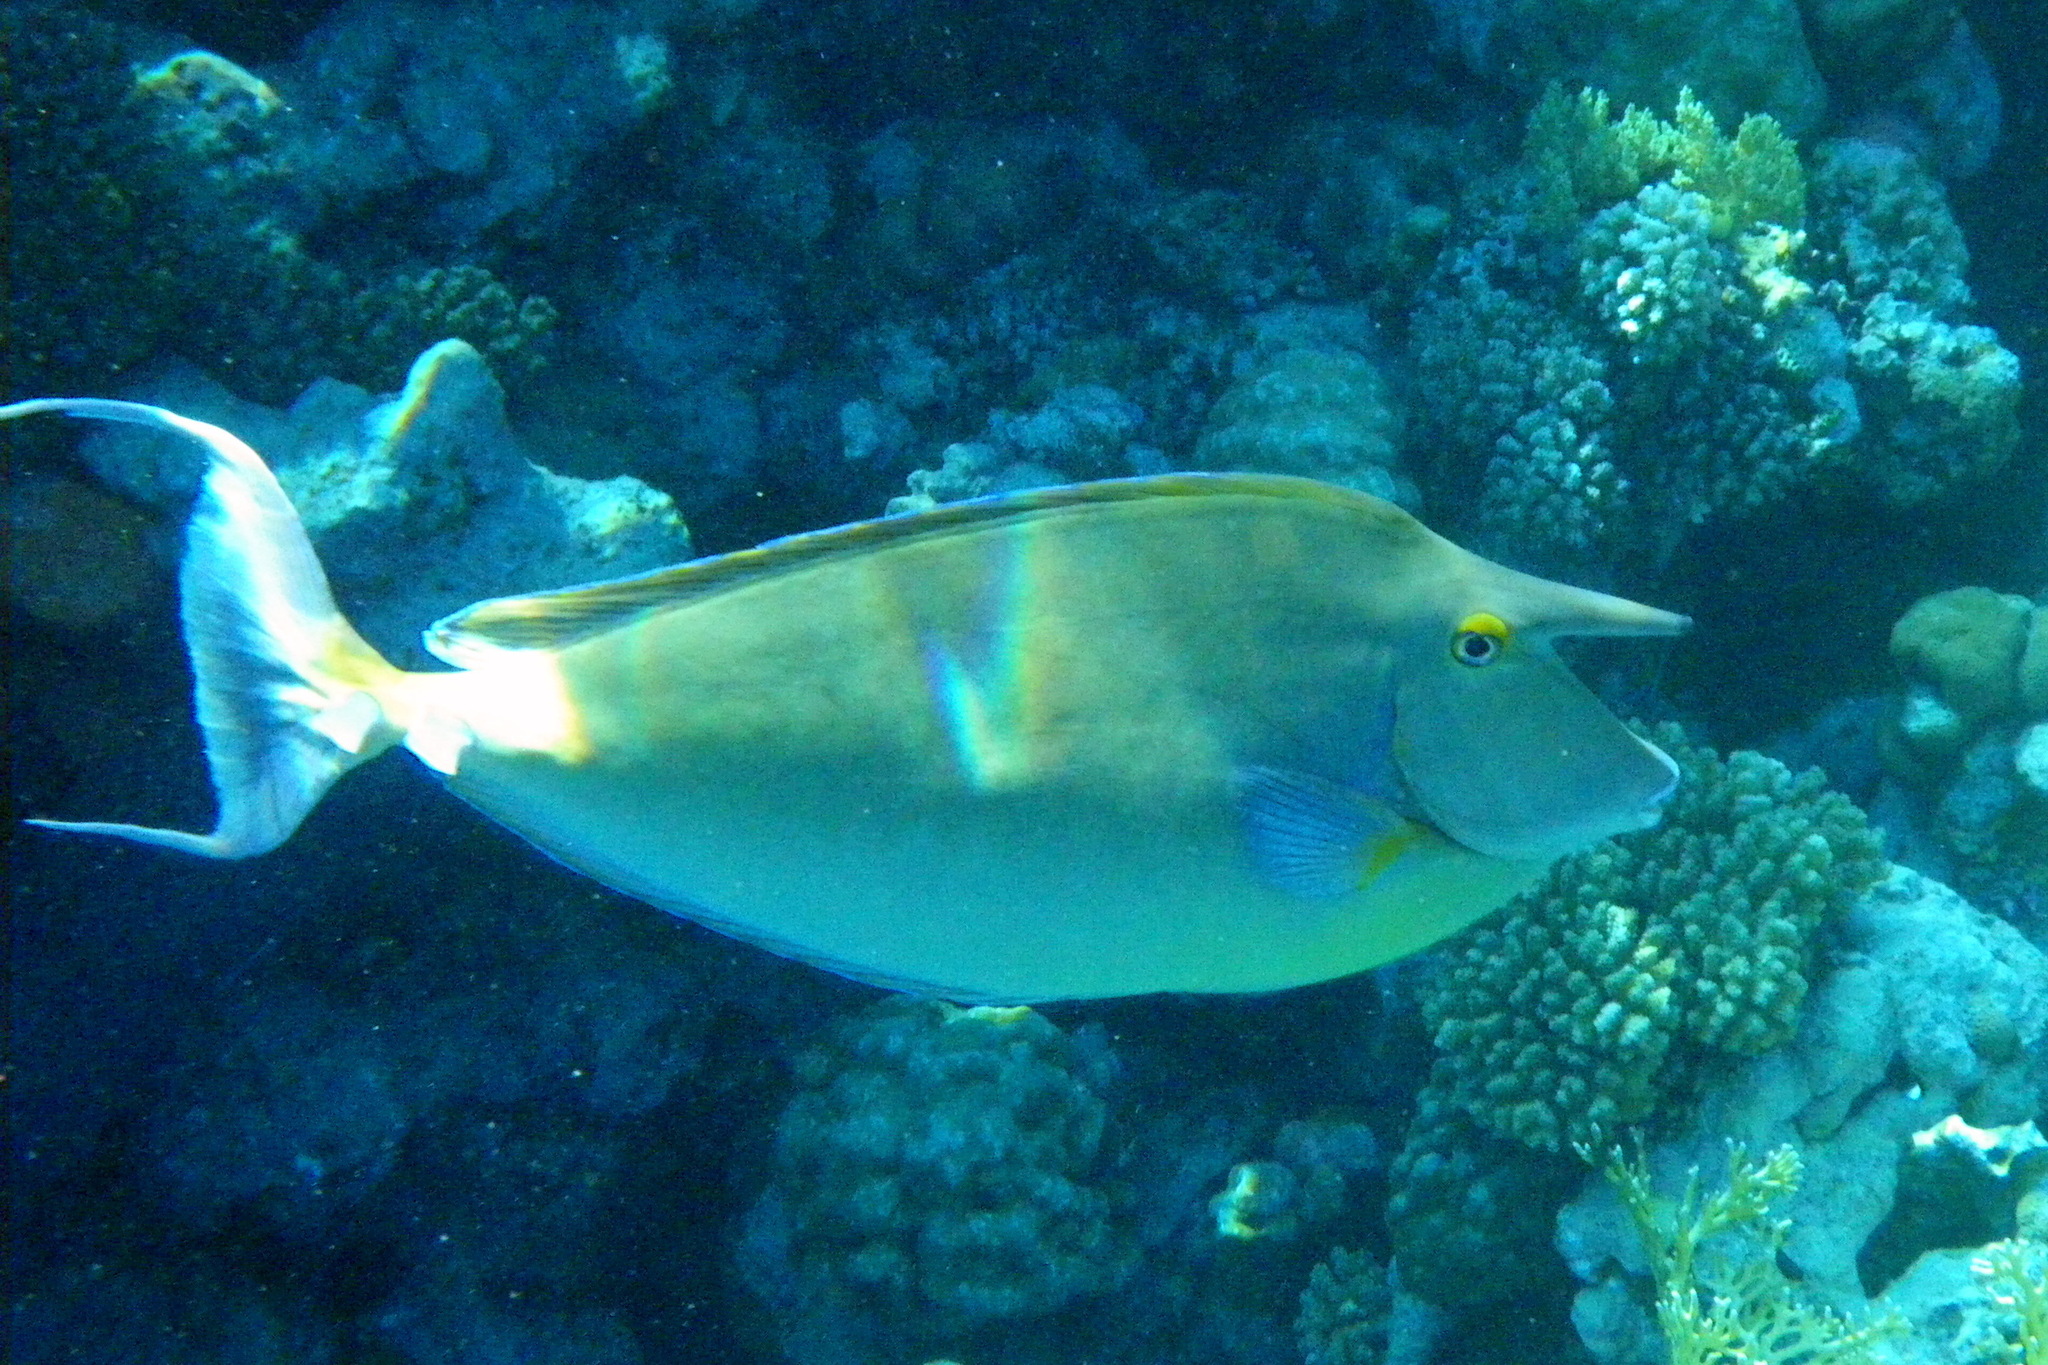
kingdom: Animalia
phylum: Chordata
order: Perciformes
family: Acanthuridae
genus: Naso
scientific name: Naso unicornis
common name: Bluespine unicornfish
